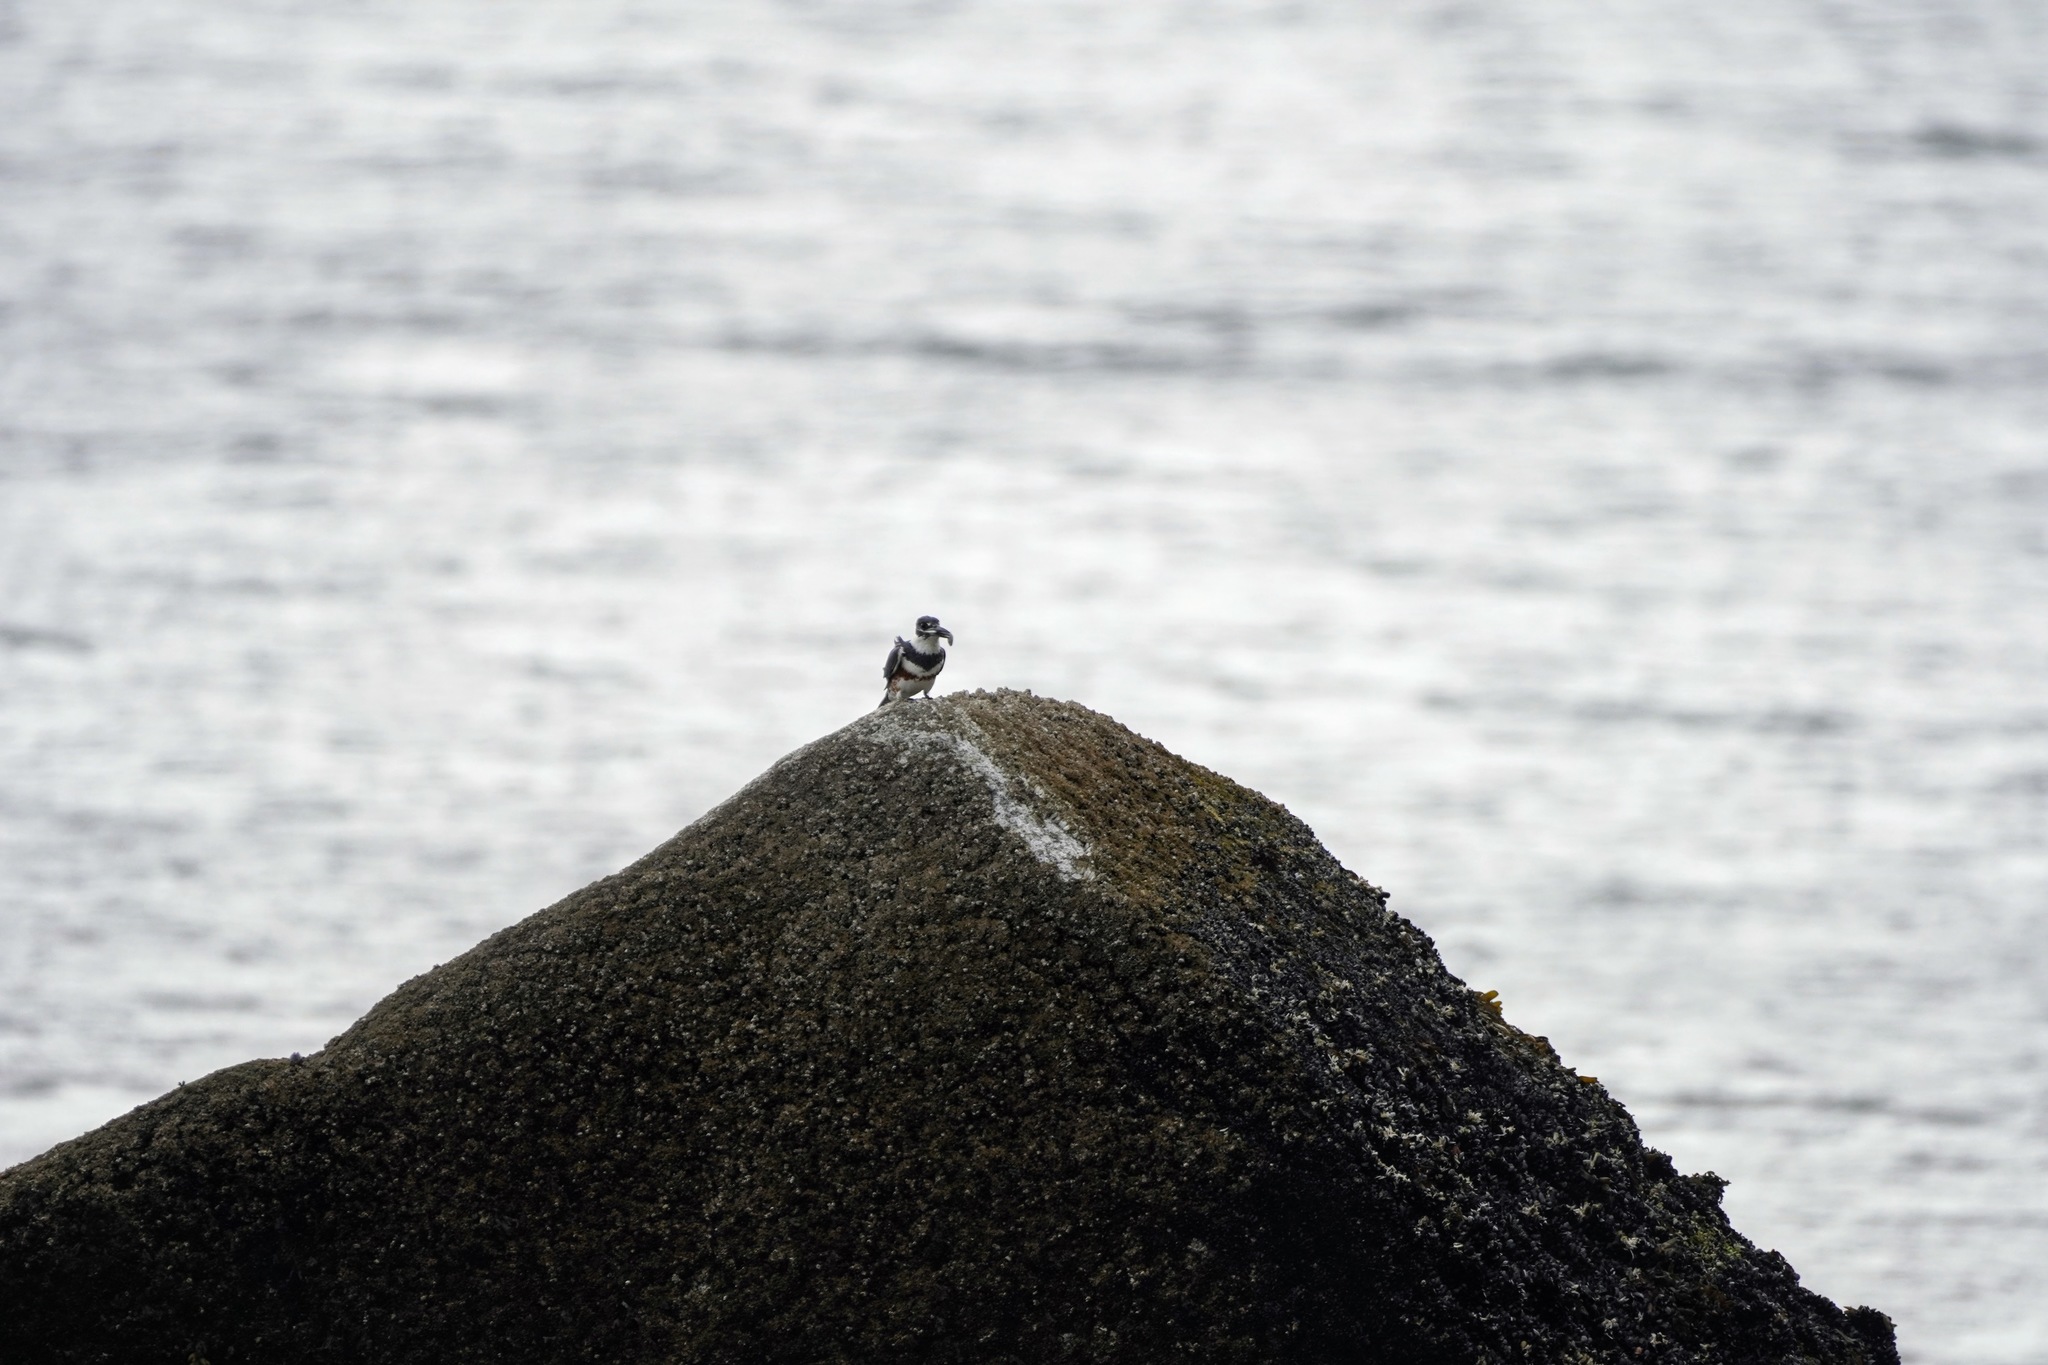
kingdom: Animalia
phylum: Chordata
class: Aves
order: Coraciiformes
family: Alcedinidae
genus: Megaceryle
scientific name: Megaceryle alcyon
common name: Belted kingfisher
